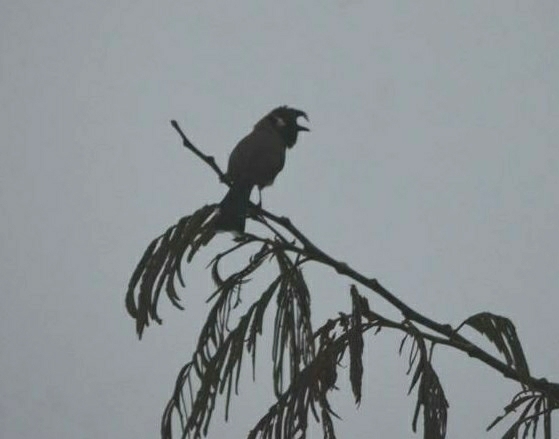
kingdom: Animalia
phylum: Chordata
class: Aves
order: Passeriformes
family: Pycnonotidae
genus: Pycnonotus
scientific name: Pycnonotus leucogenys
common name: Himalayan bulbul
